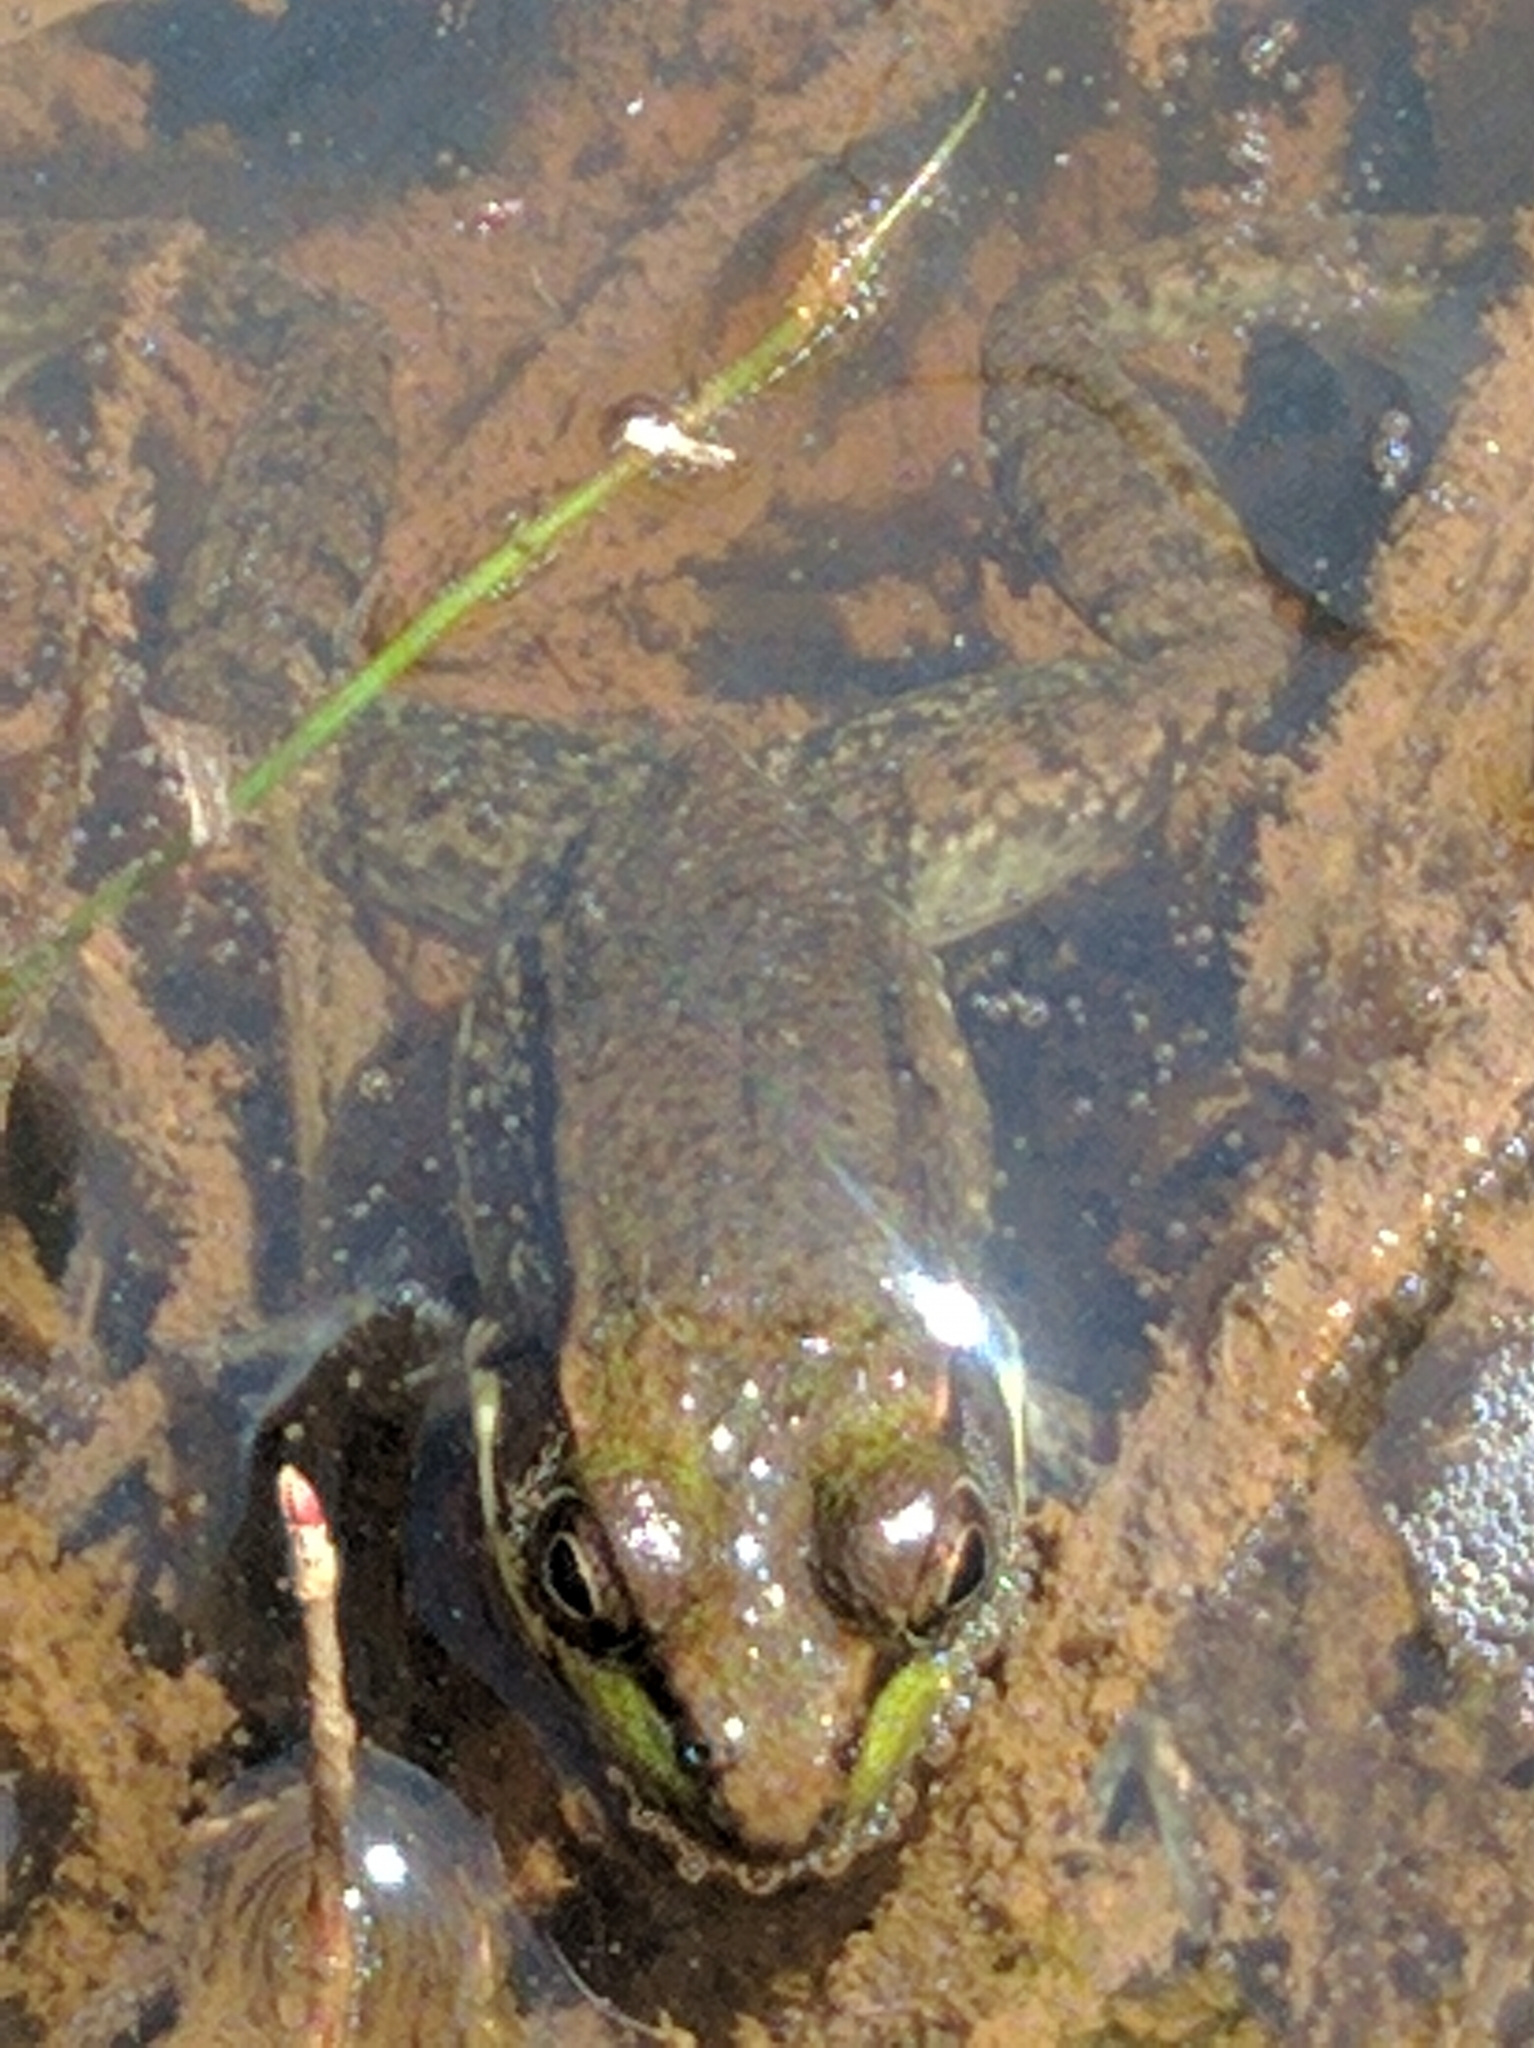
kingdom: Animalia
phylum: Chordata
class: Amphibia
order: Anura
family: Ranidae
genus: Lithobates
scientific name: Lithobates clamitans
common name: Green frog
